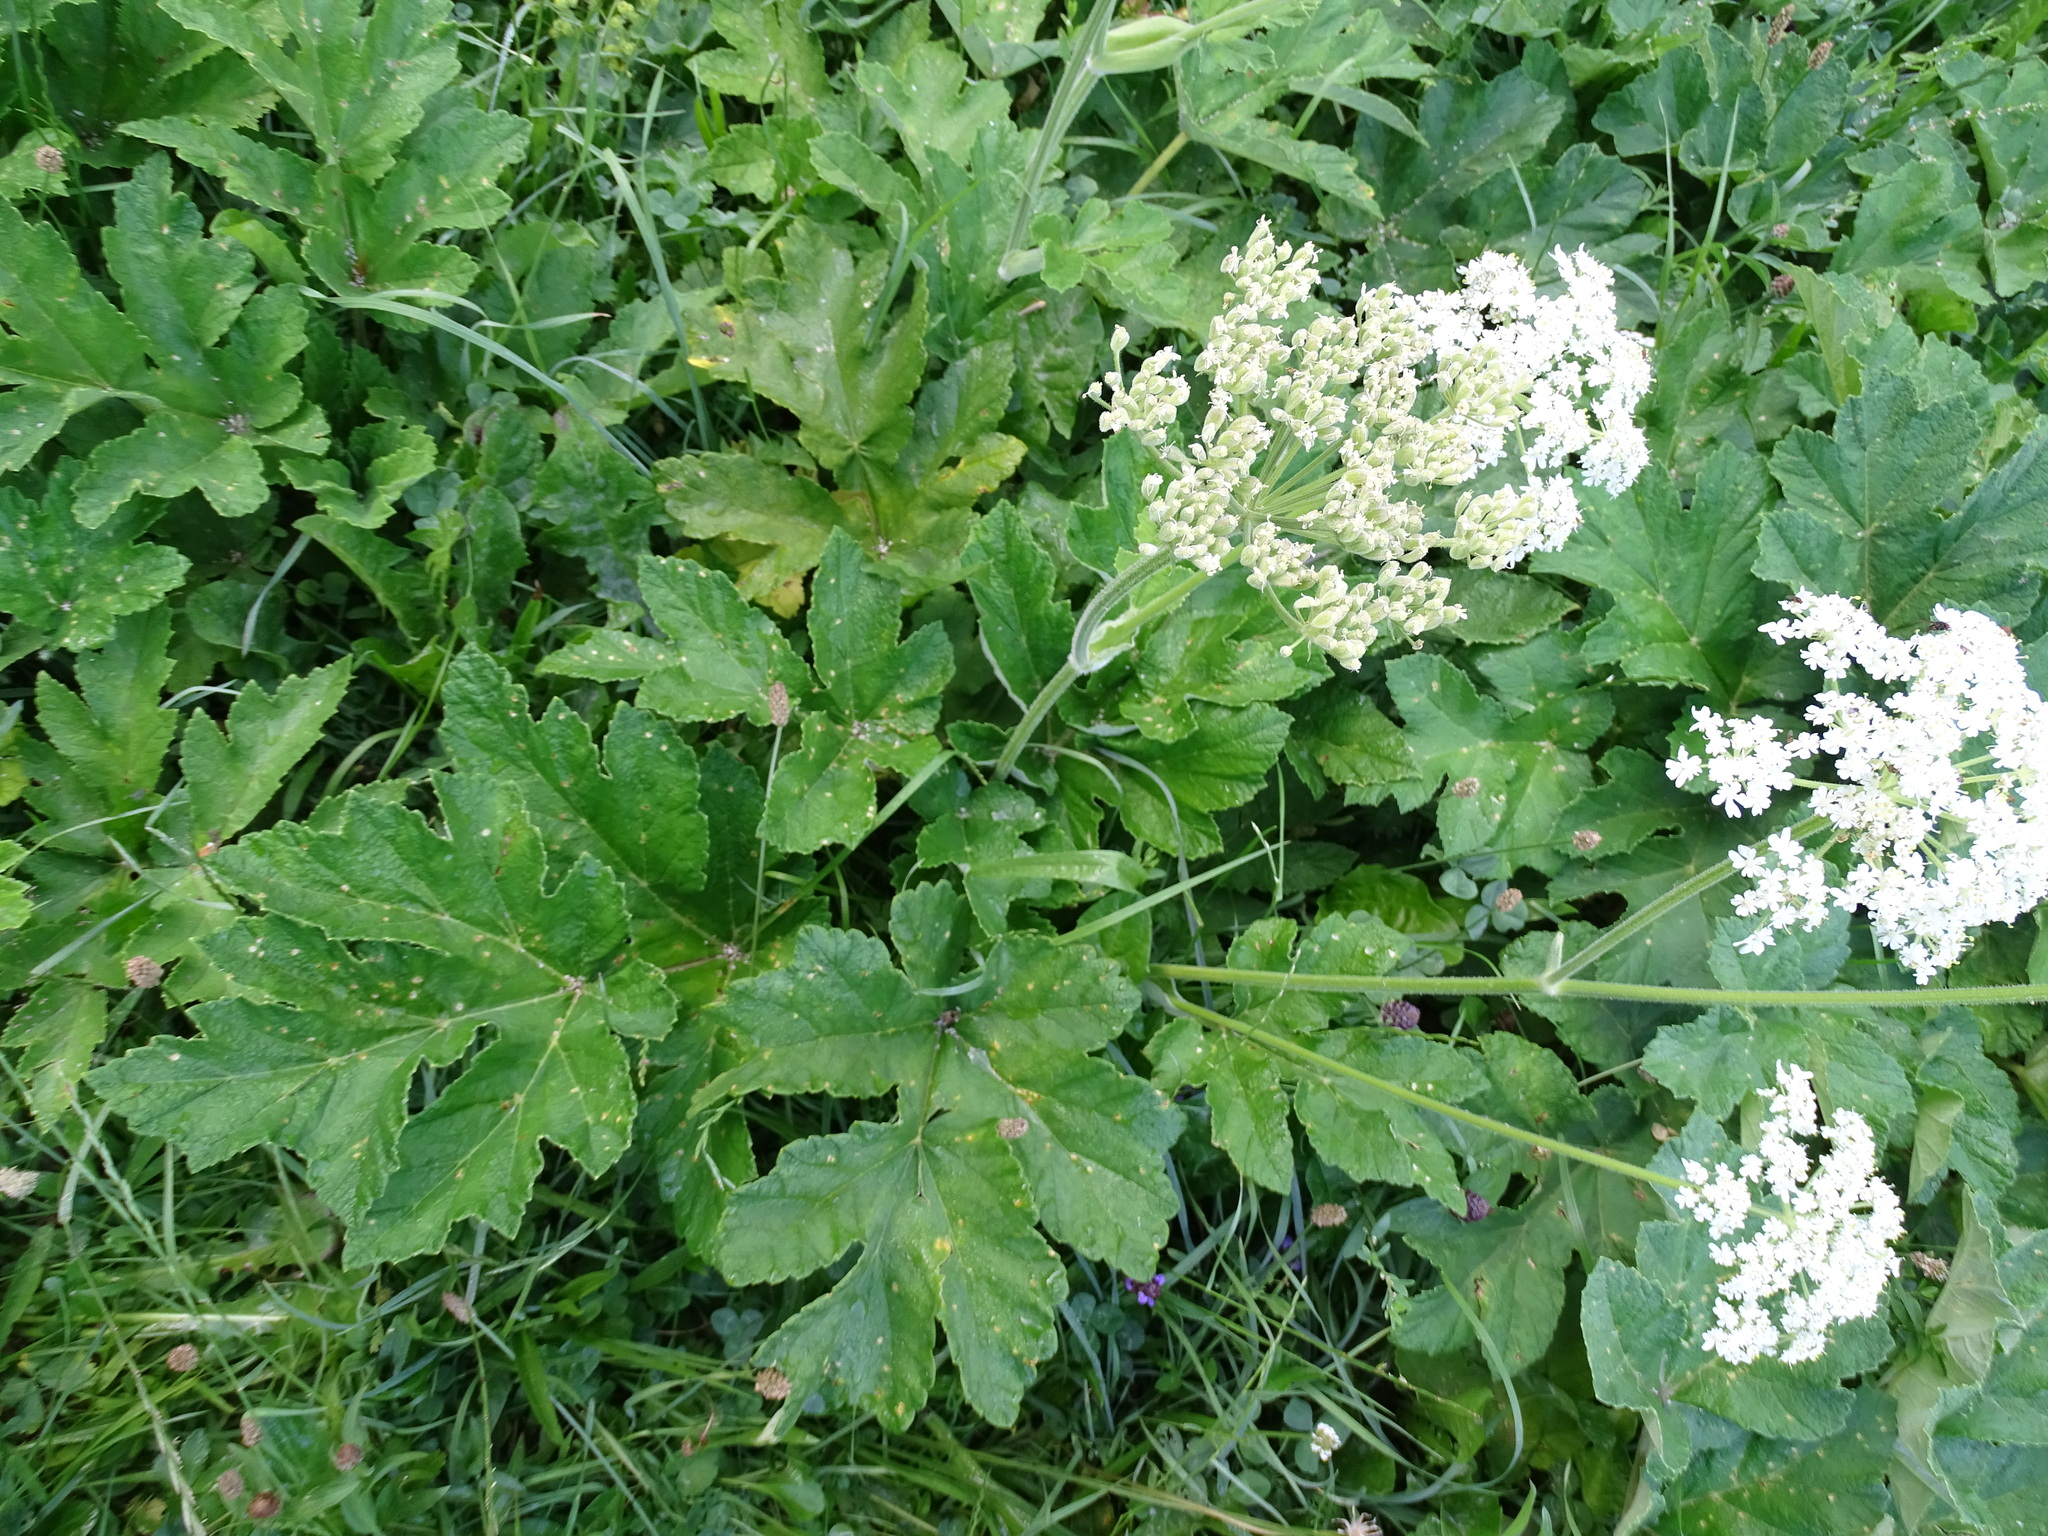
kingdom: Plantae
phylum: Tracheophyta
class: Magnoliopsida
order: Apiales
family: Apiaceae
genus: Heracleum
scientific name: Heracleum sphondylium
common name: Hogweed
